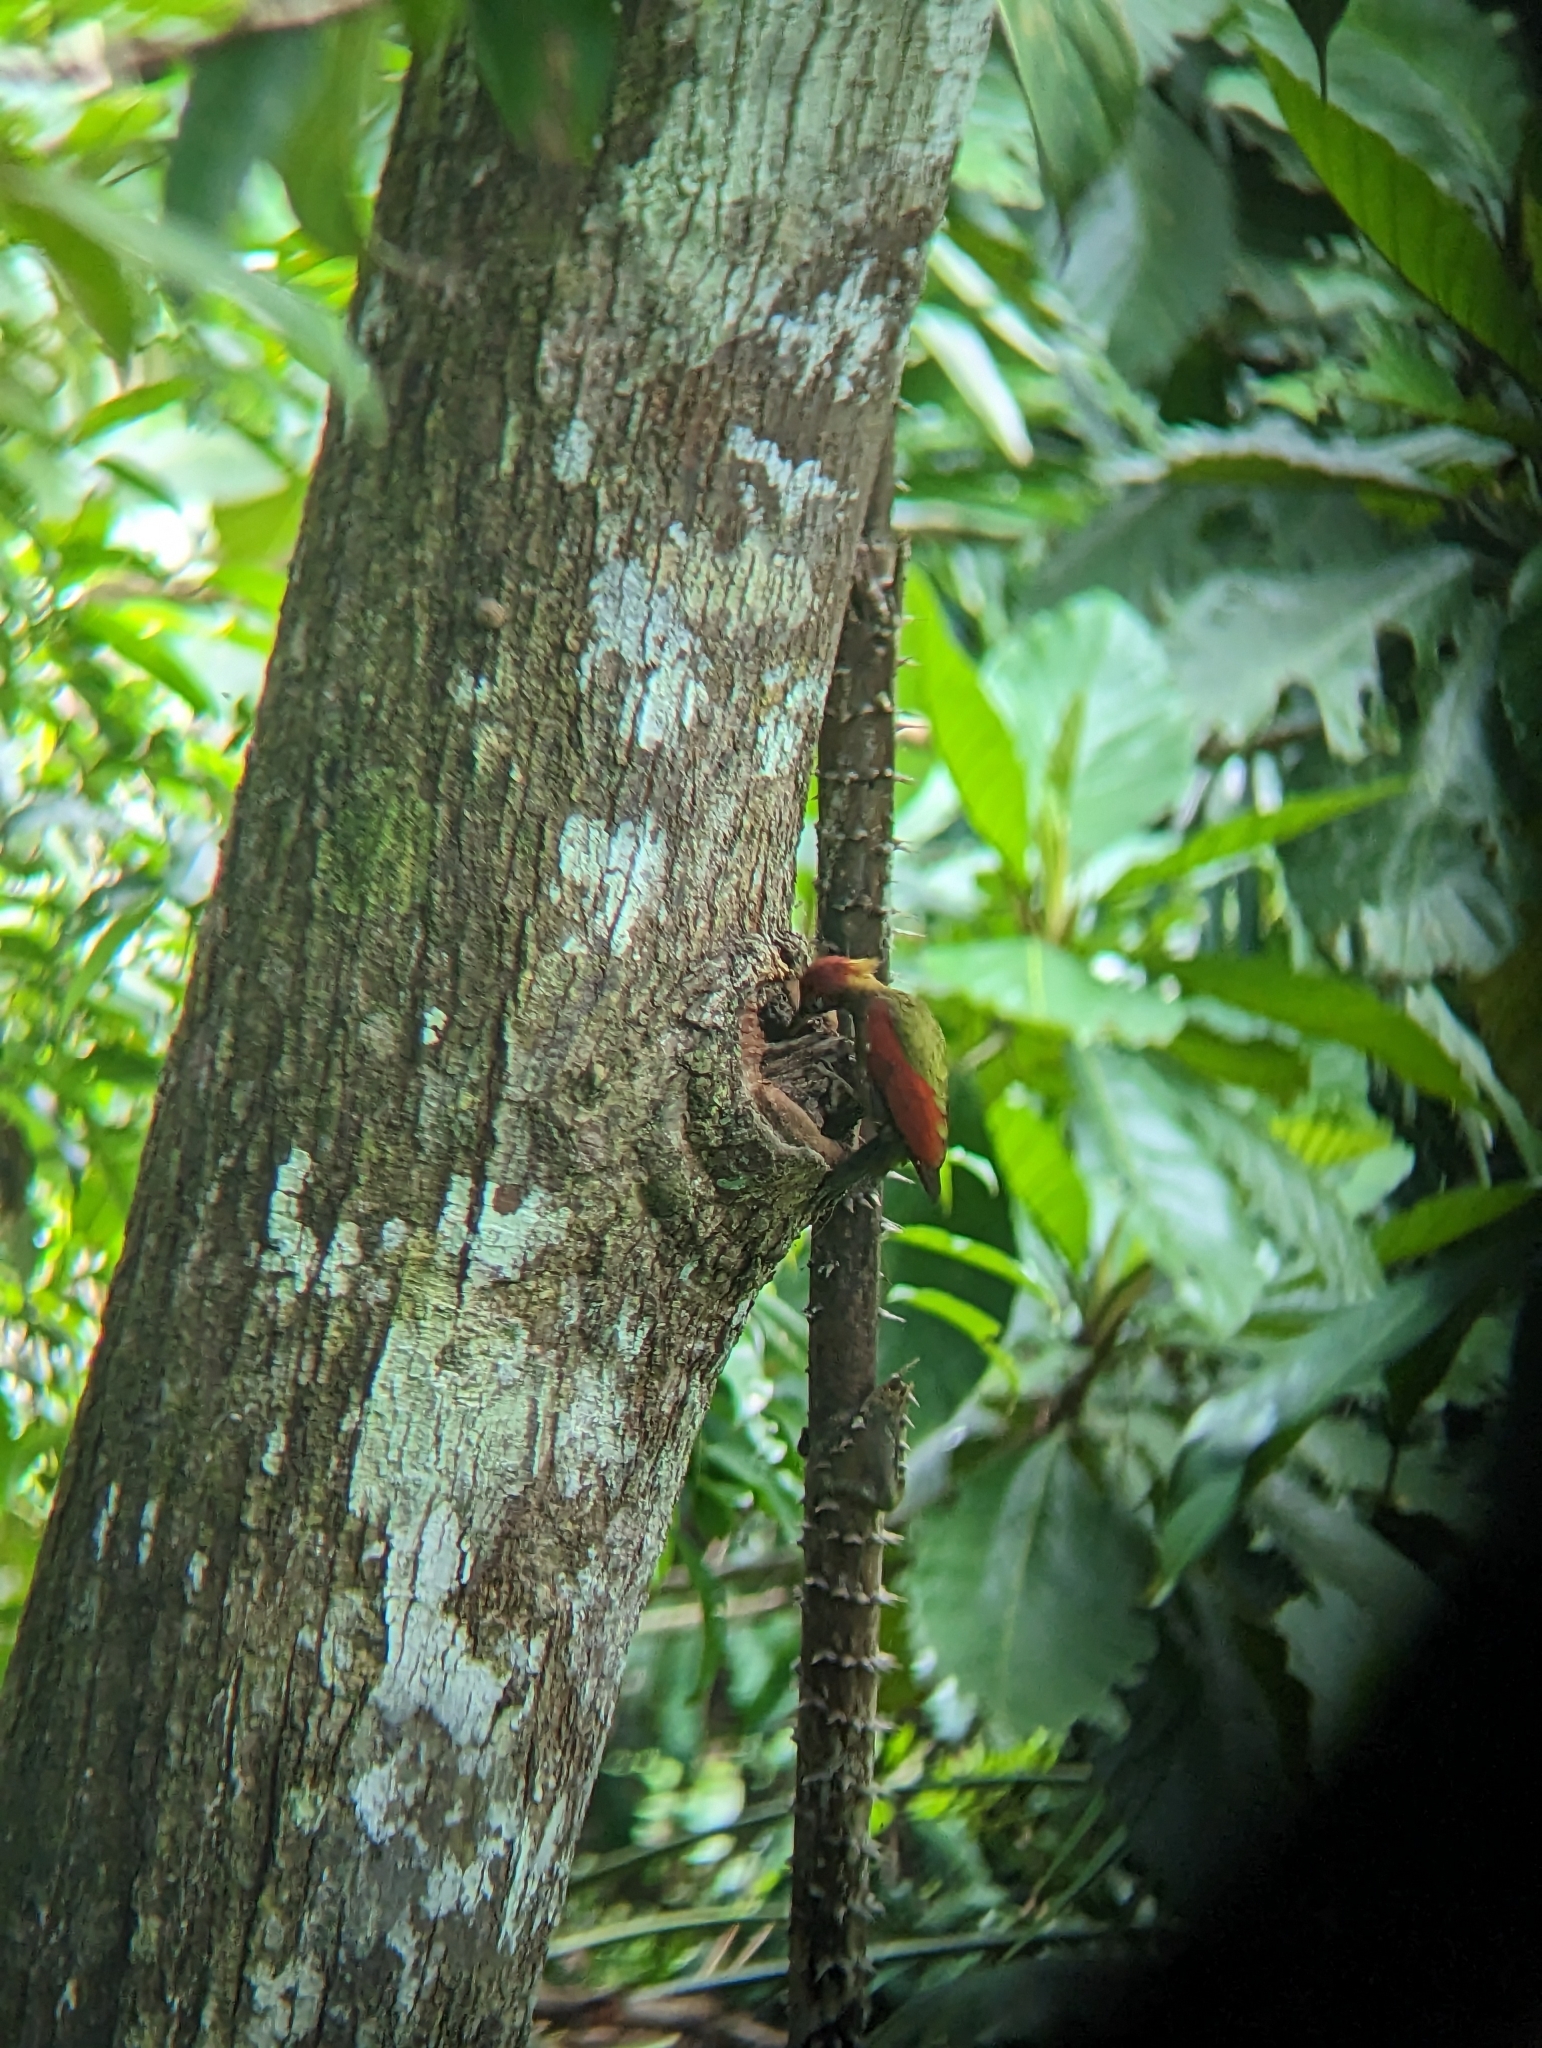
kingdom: Animalia
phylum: Chordata
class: Aves
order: Piciformes
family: Picidae
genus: Picus
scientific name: Picus puniceus
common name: Crimson-winged woodpecker
